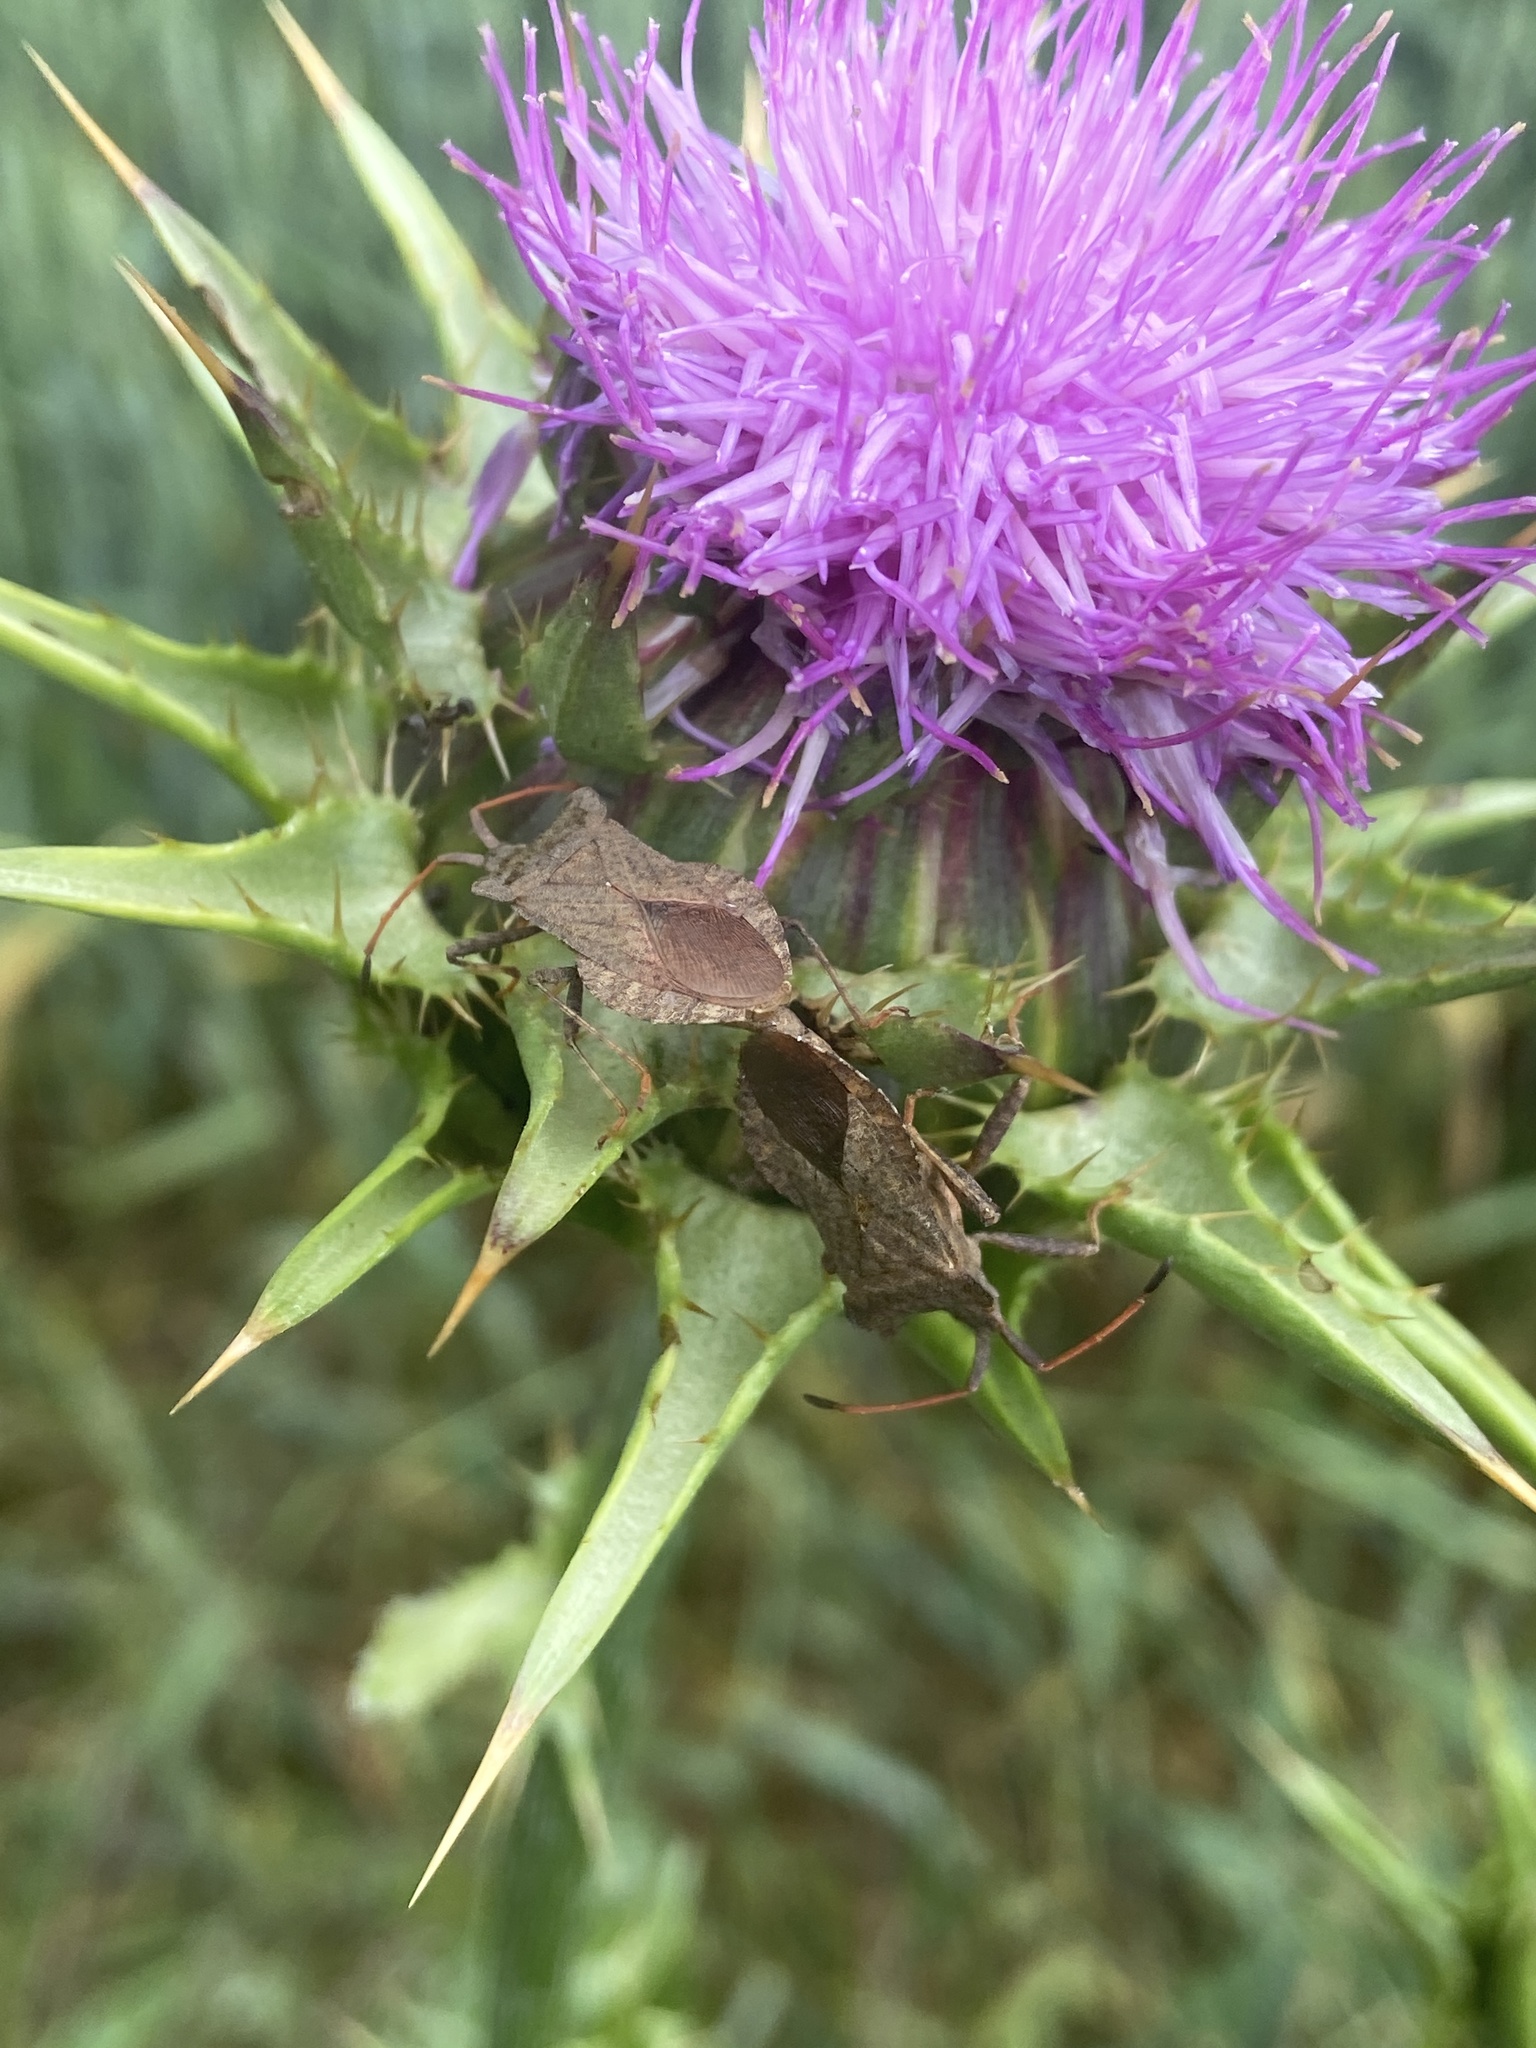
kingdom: Animalia
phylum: Arthropoda
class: Insecta
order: Hemiptera
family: Coreidae
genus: Coreus
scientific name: Coreus marginatus
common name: Dock bug
